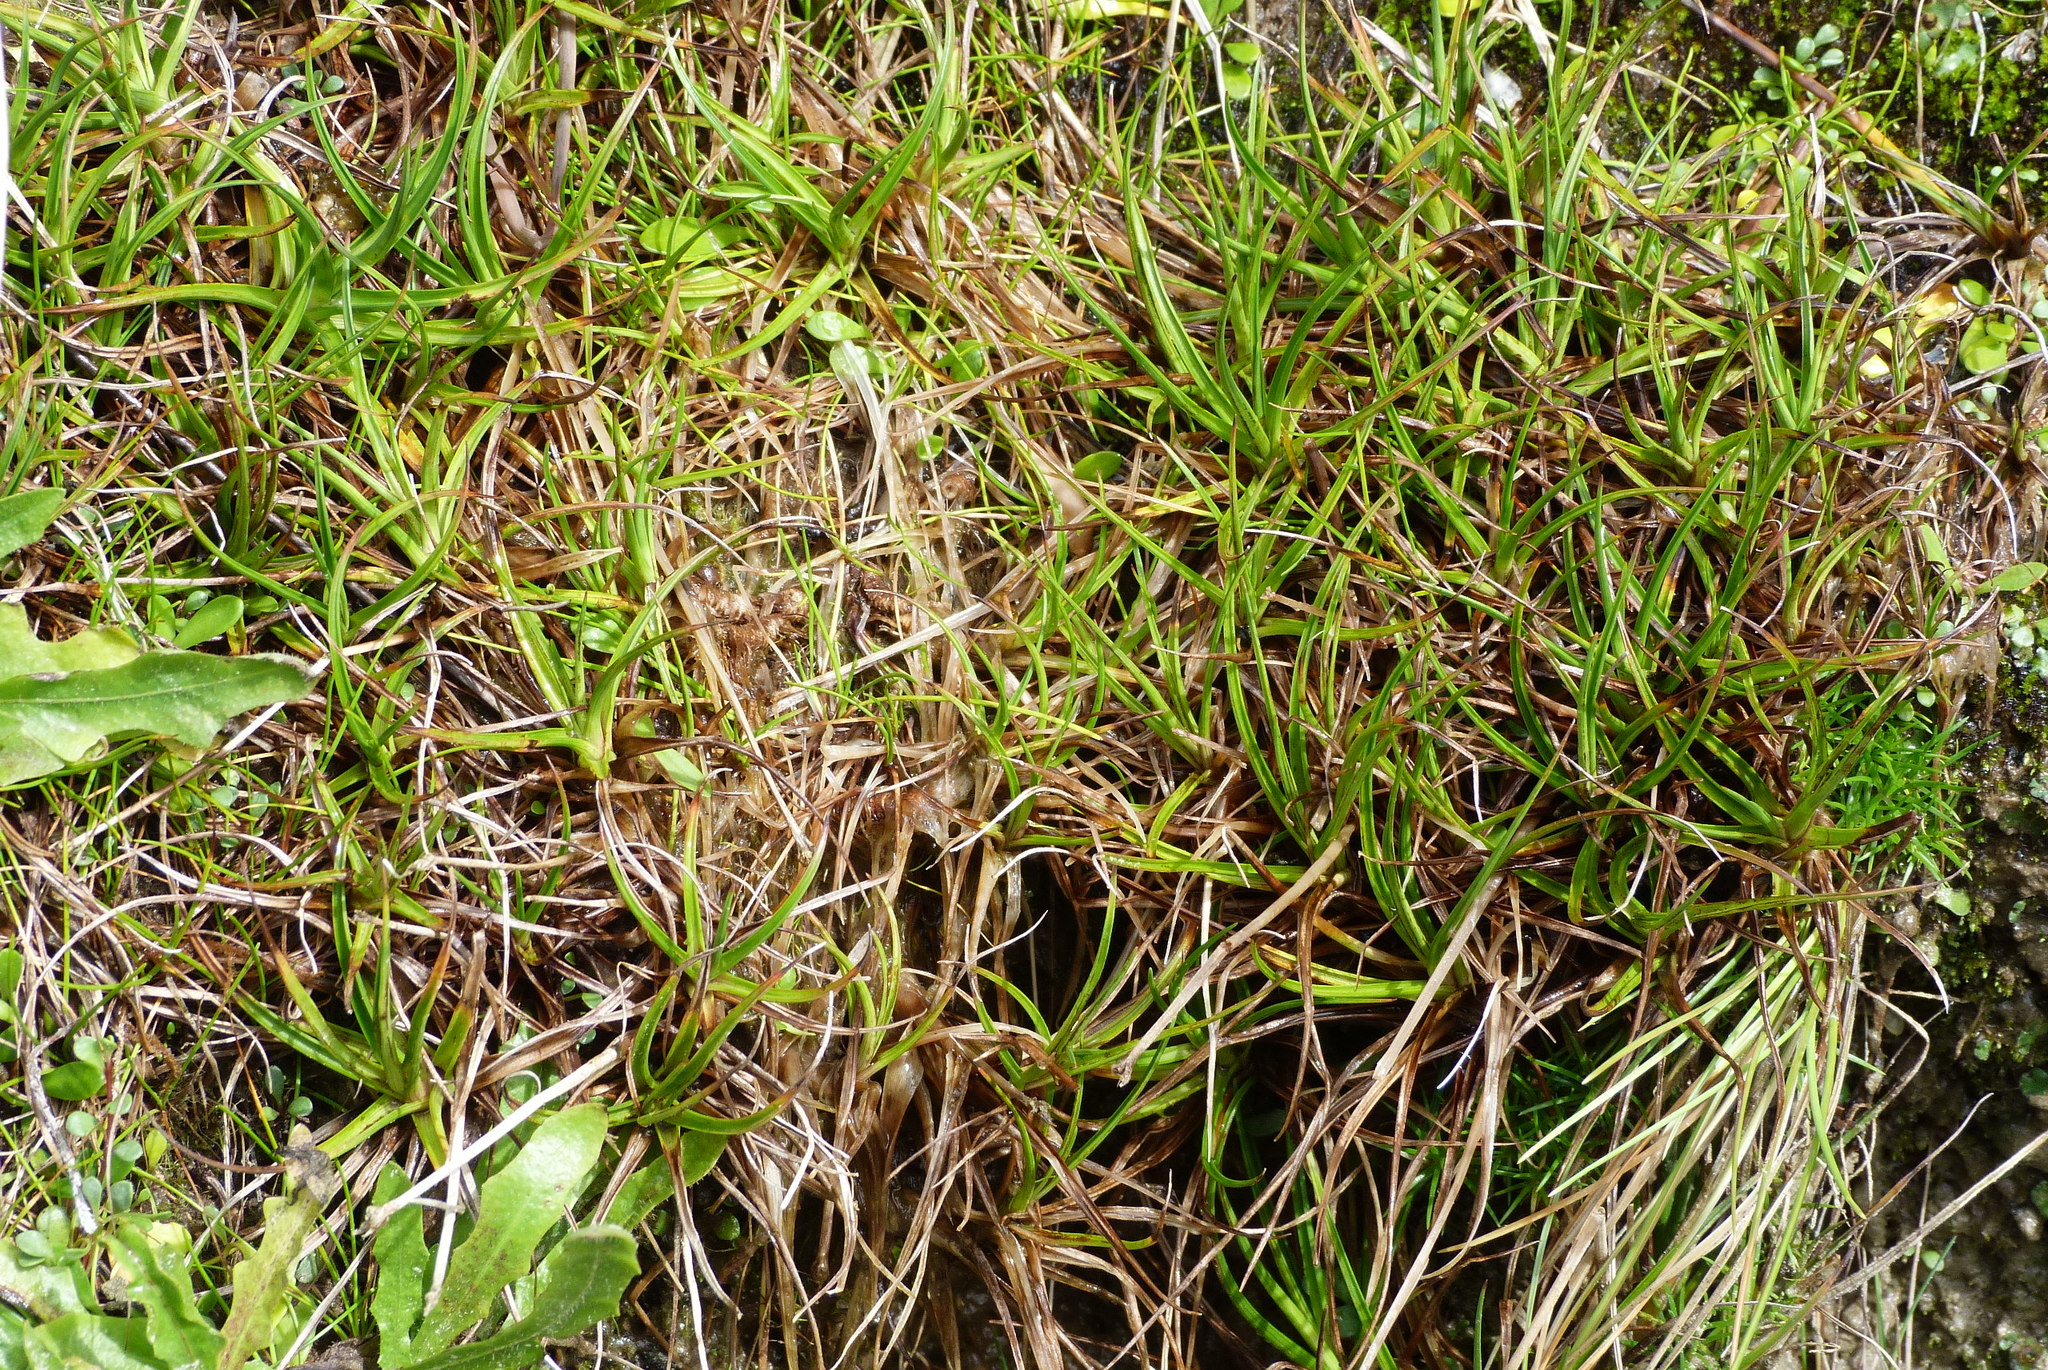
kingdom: Plantae
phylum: Tracheophyta
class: Liliopsida
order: Poales
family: Juncaceae
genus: Juncus
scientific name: Juncus antarcticus
